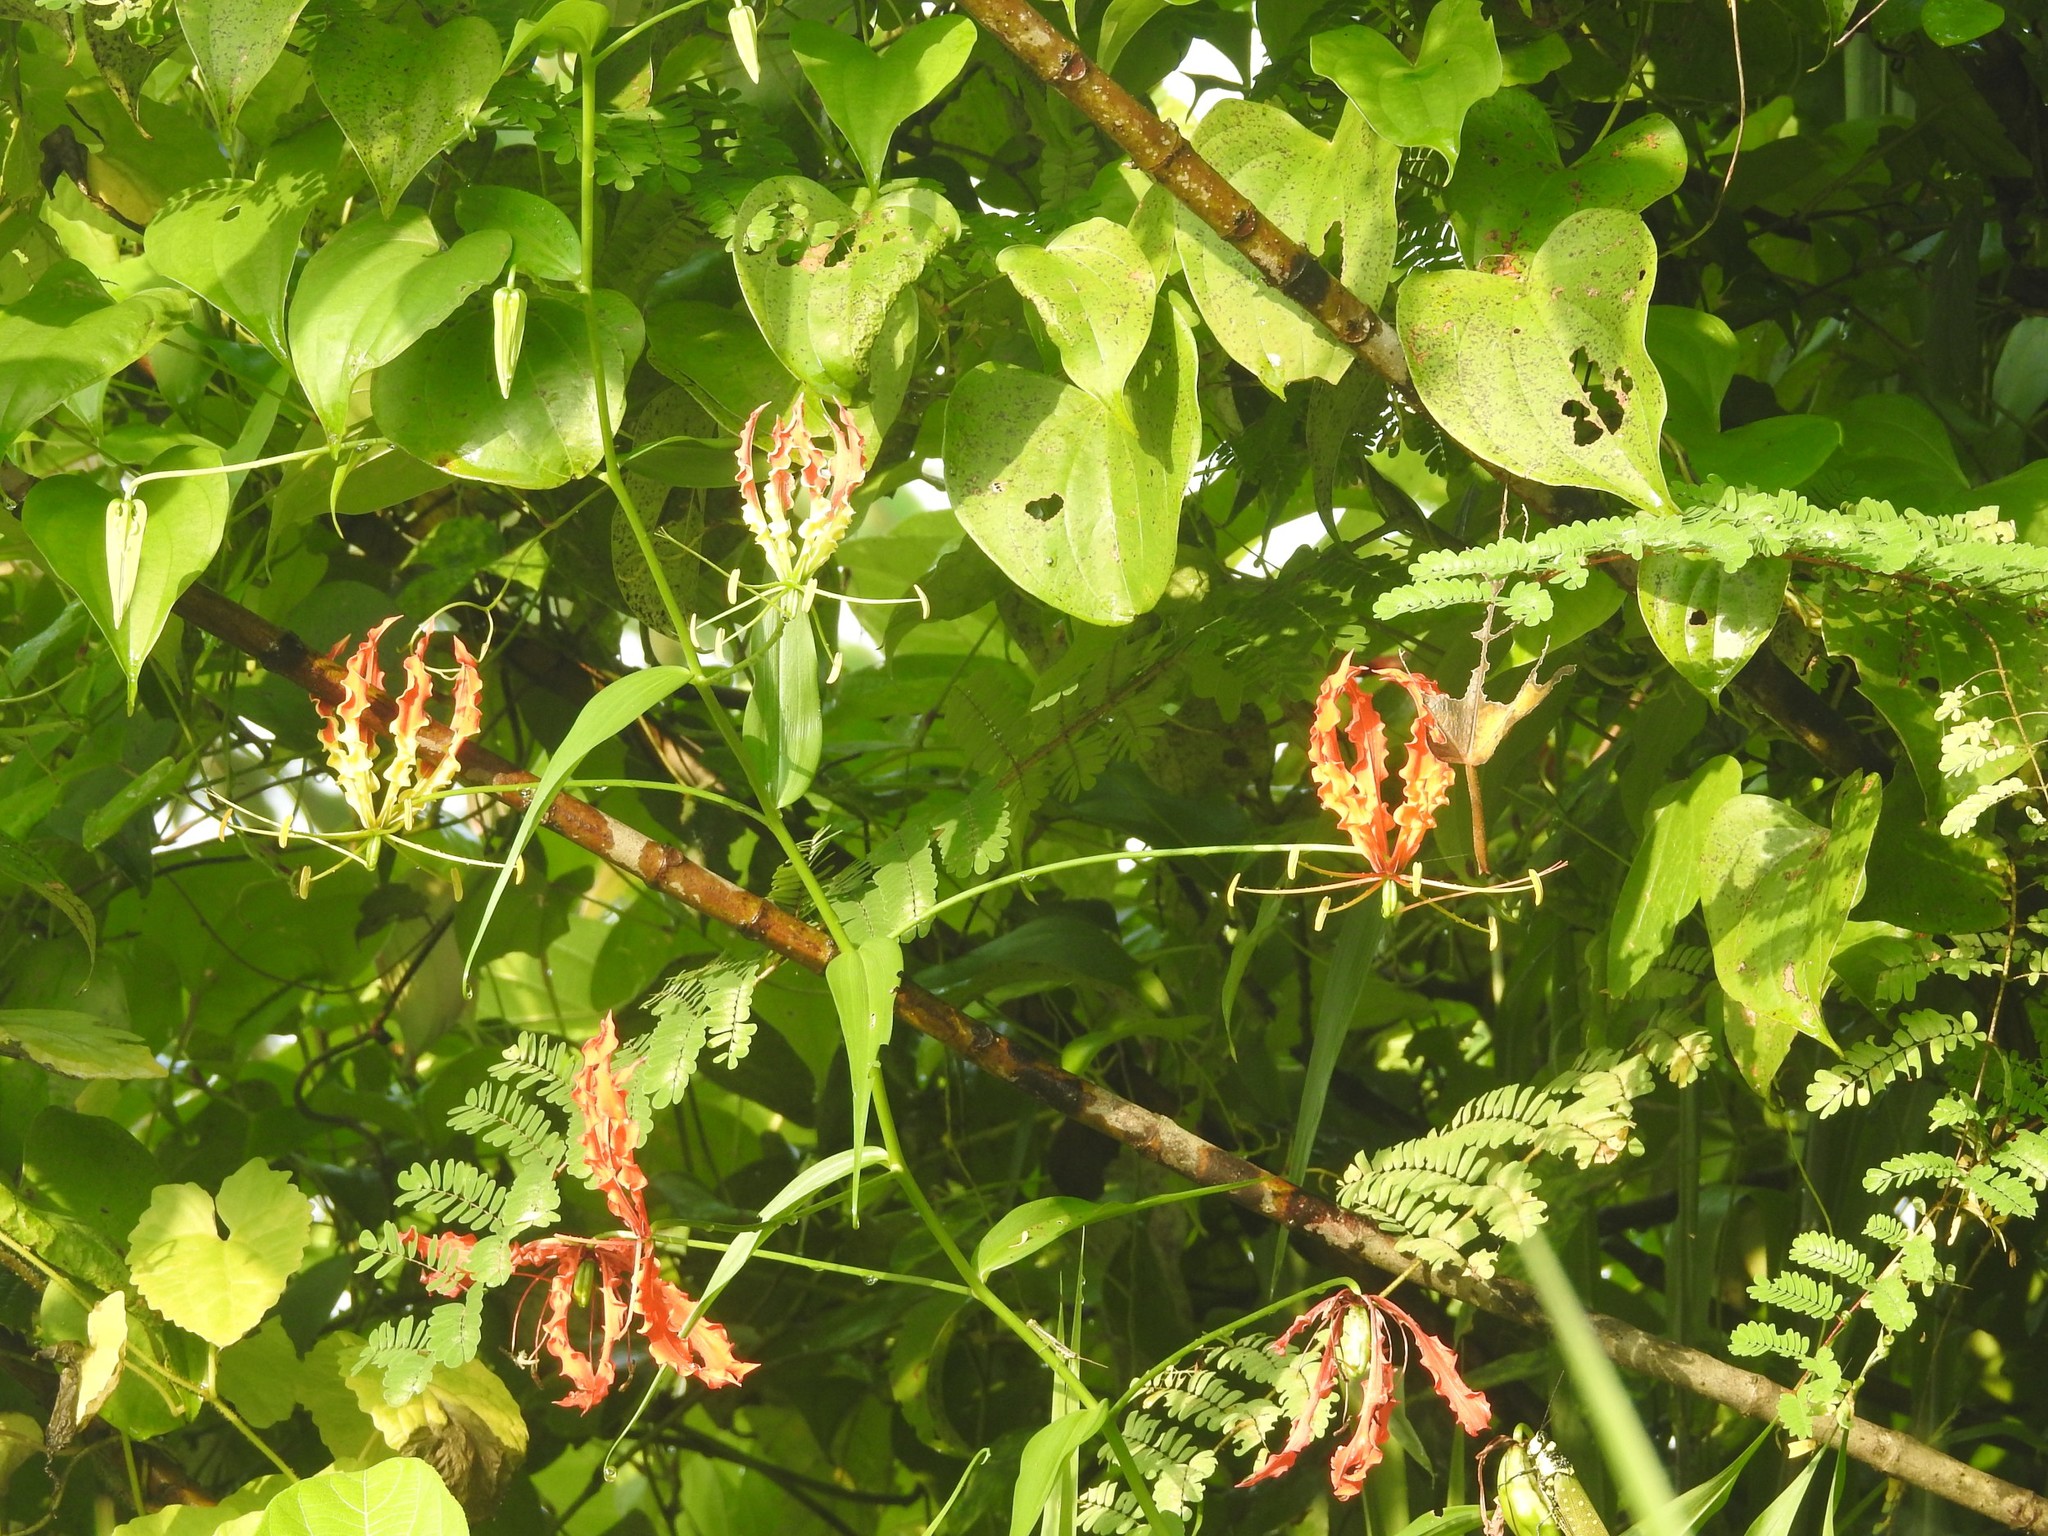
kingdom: Plantae
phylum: Tracheophyta
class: Liliopsida
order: Liliales
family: Colchicaceae
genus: Gloriosa
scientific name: Gloriosa superba
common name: Flame lily
